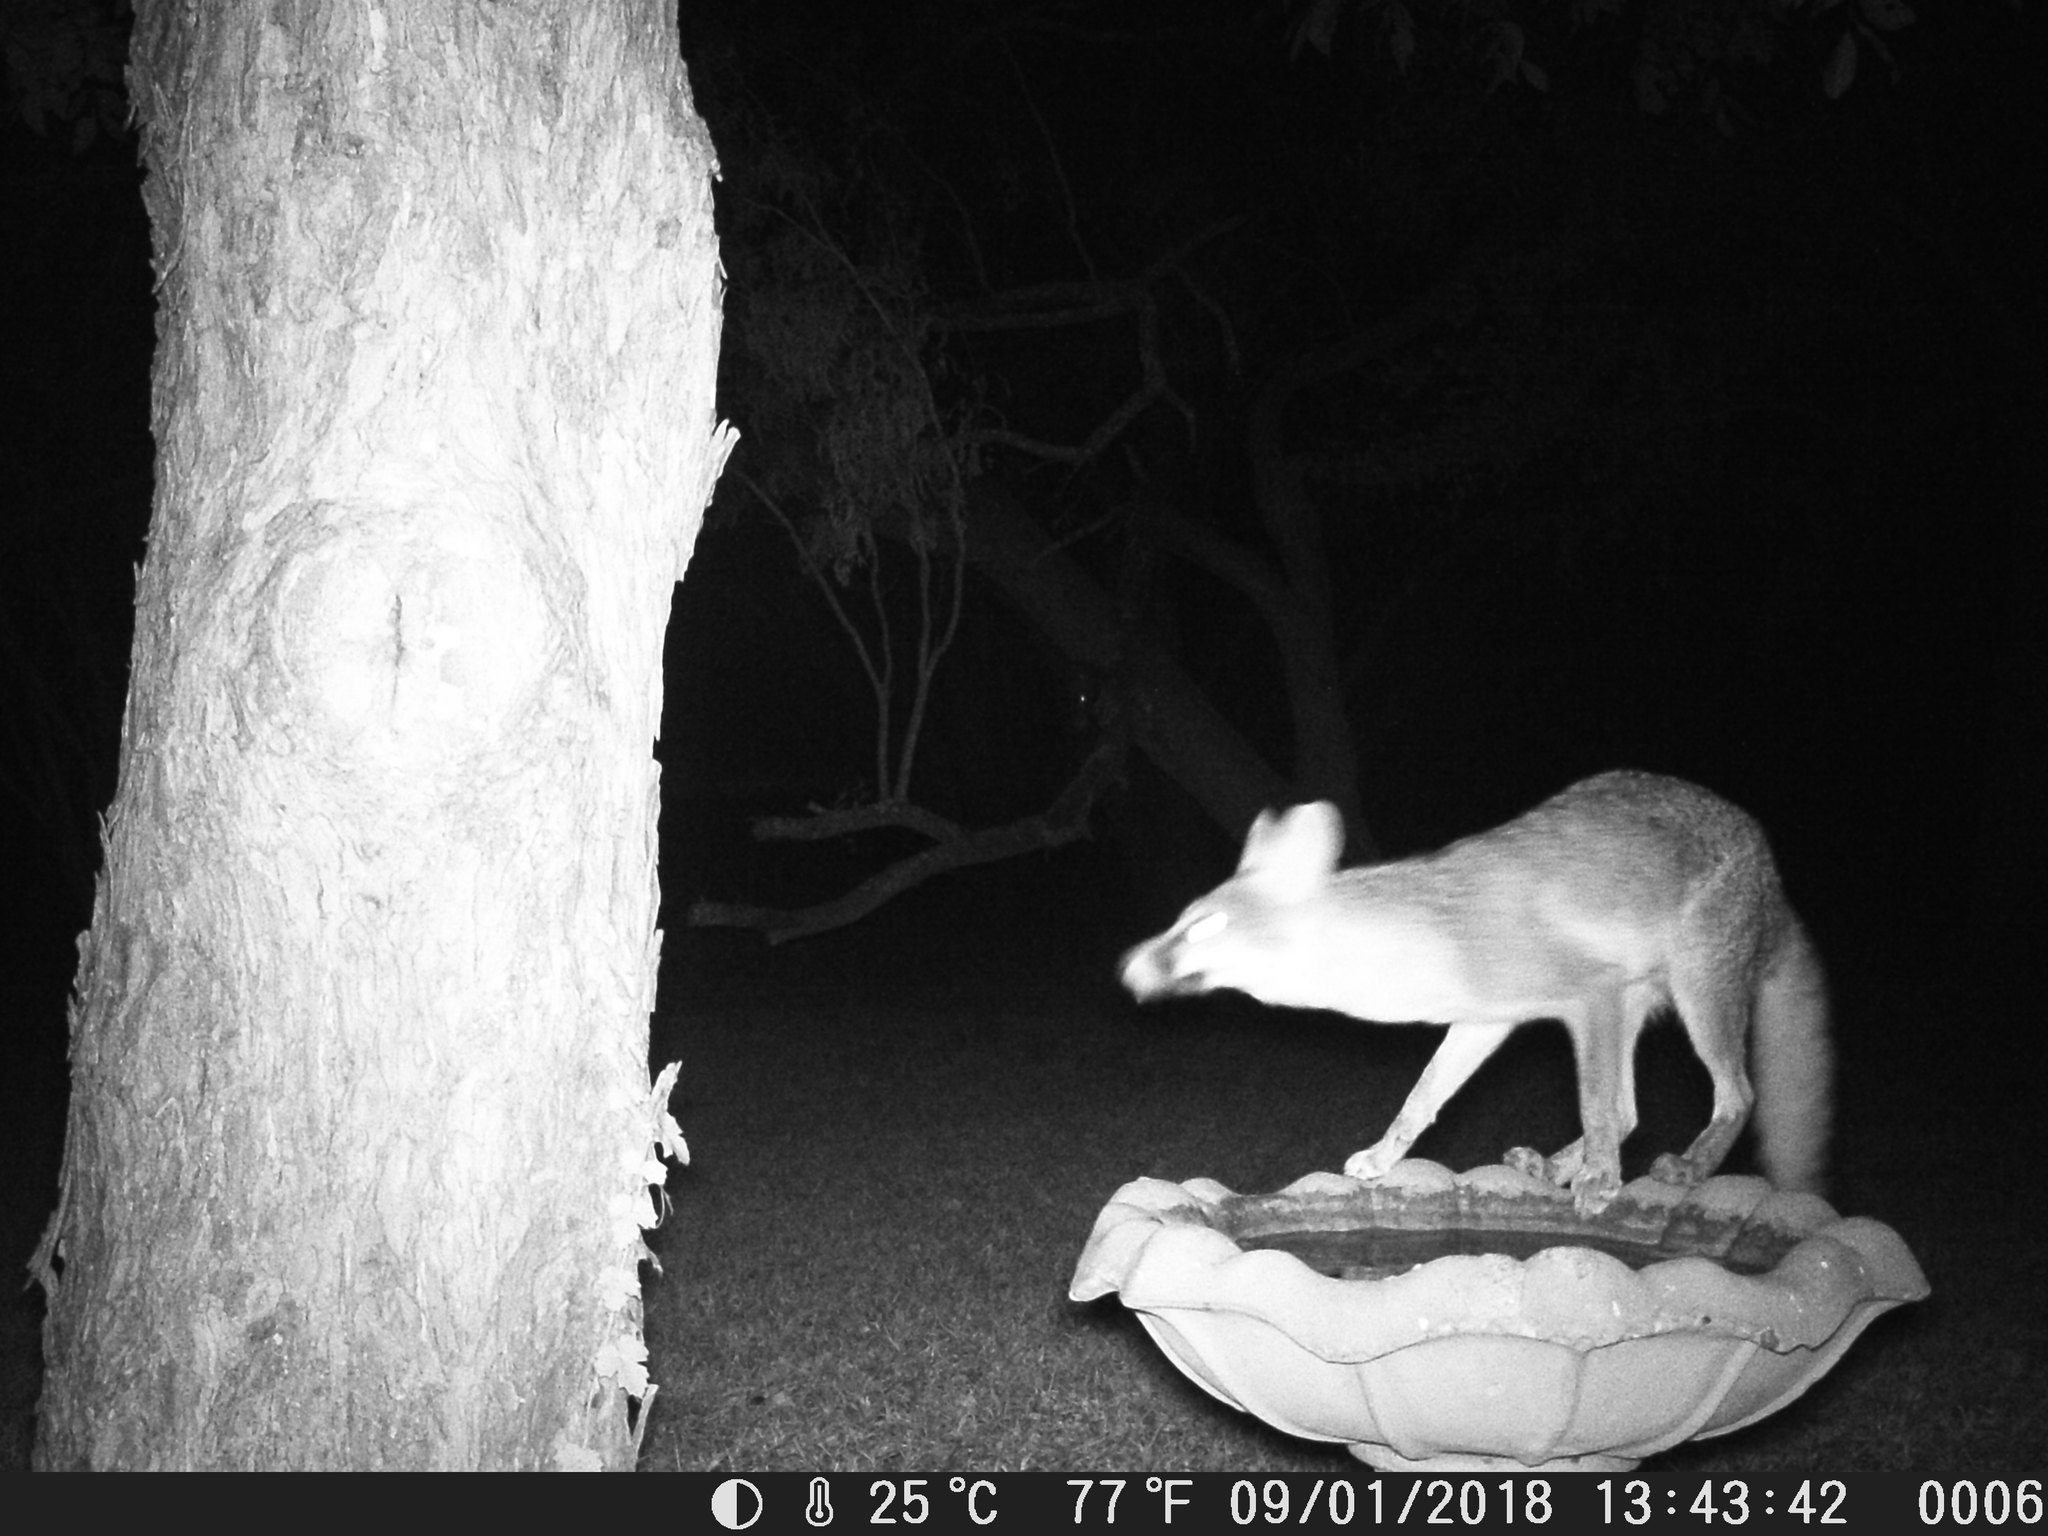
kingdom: Animalia
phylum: Chordata
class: Mammalia
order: Carnivora
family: Canidae
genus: Urocyon
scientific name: Urocyon cinereoargenteus
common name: Gray fox
